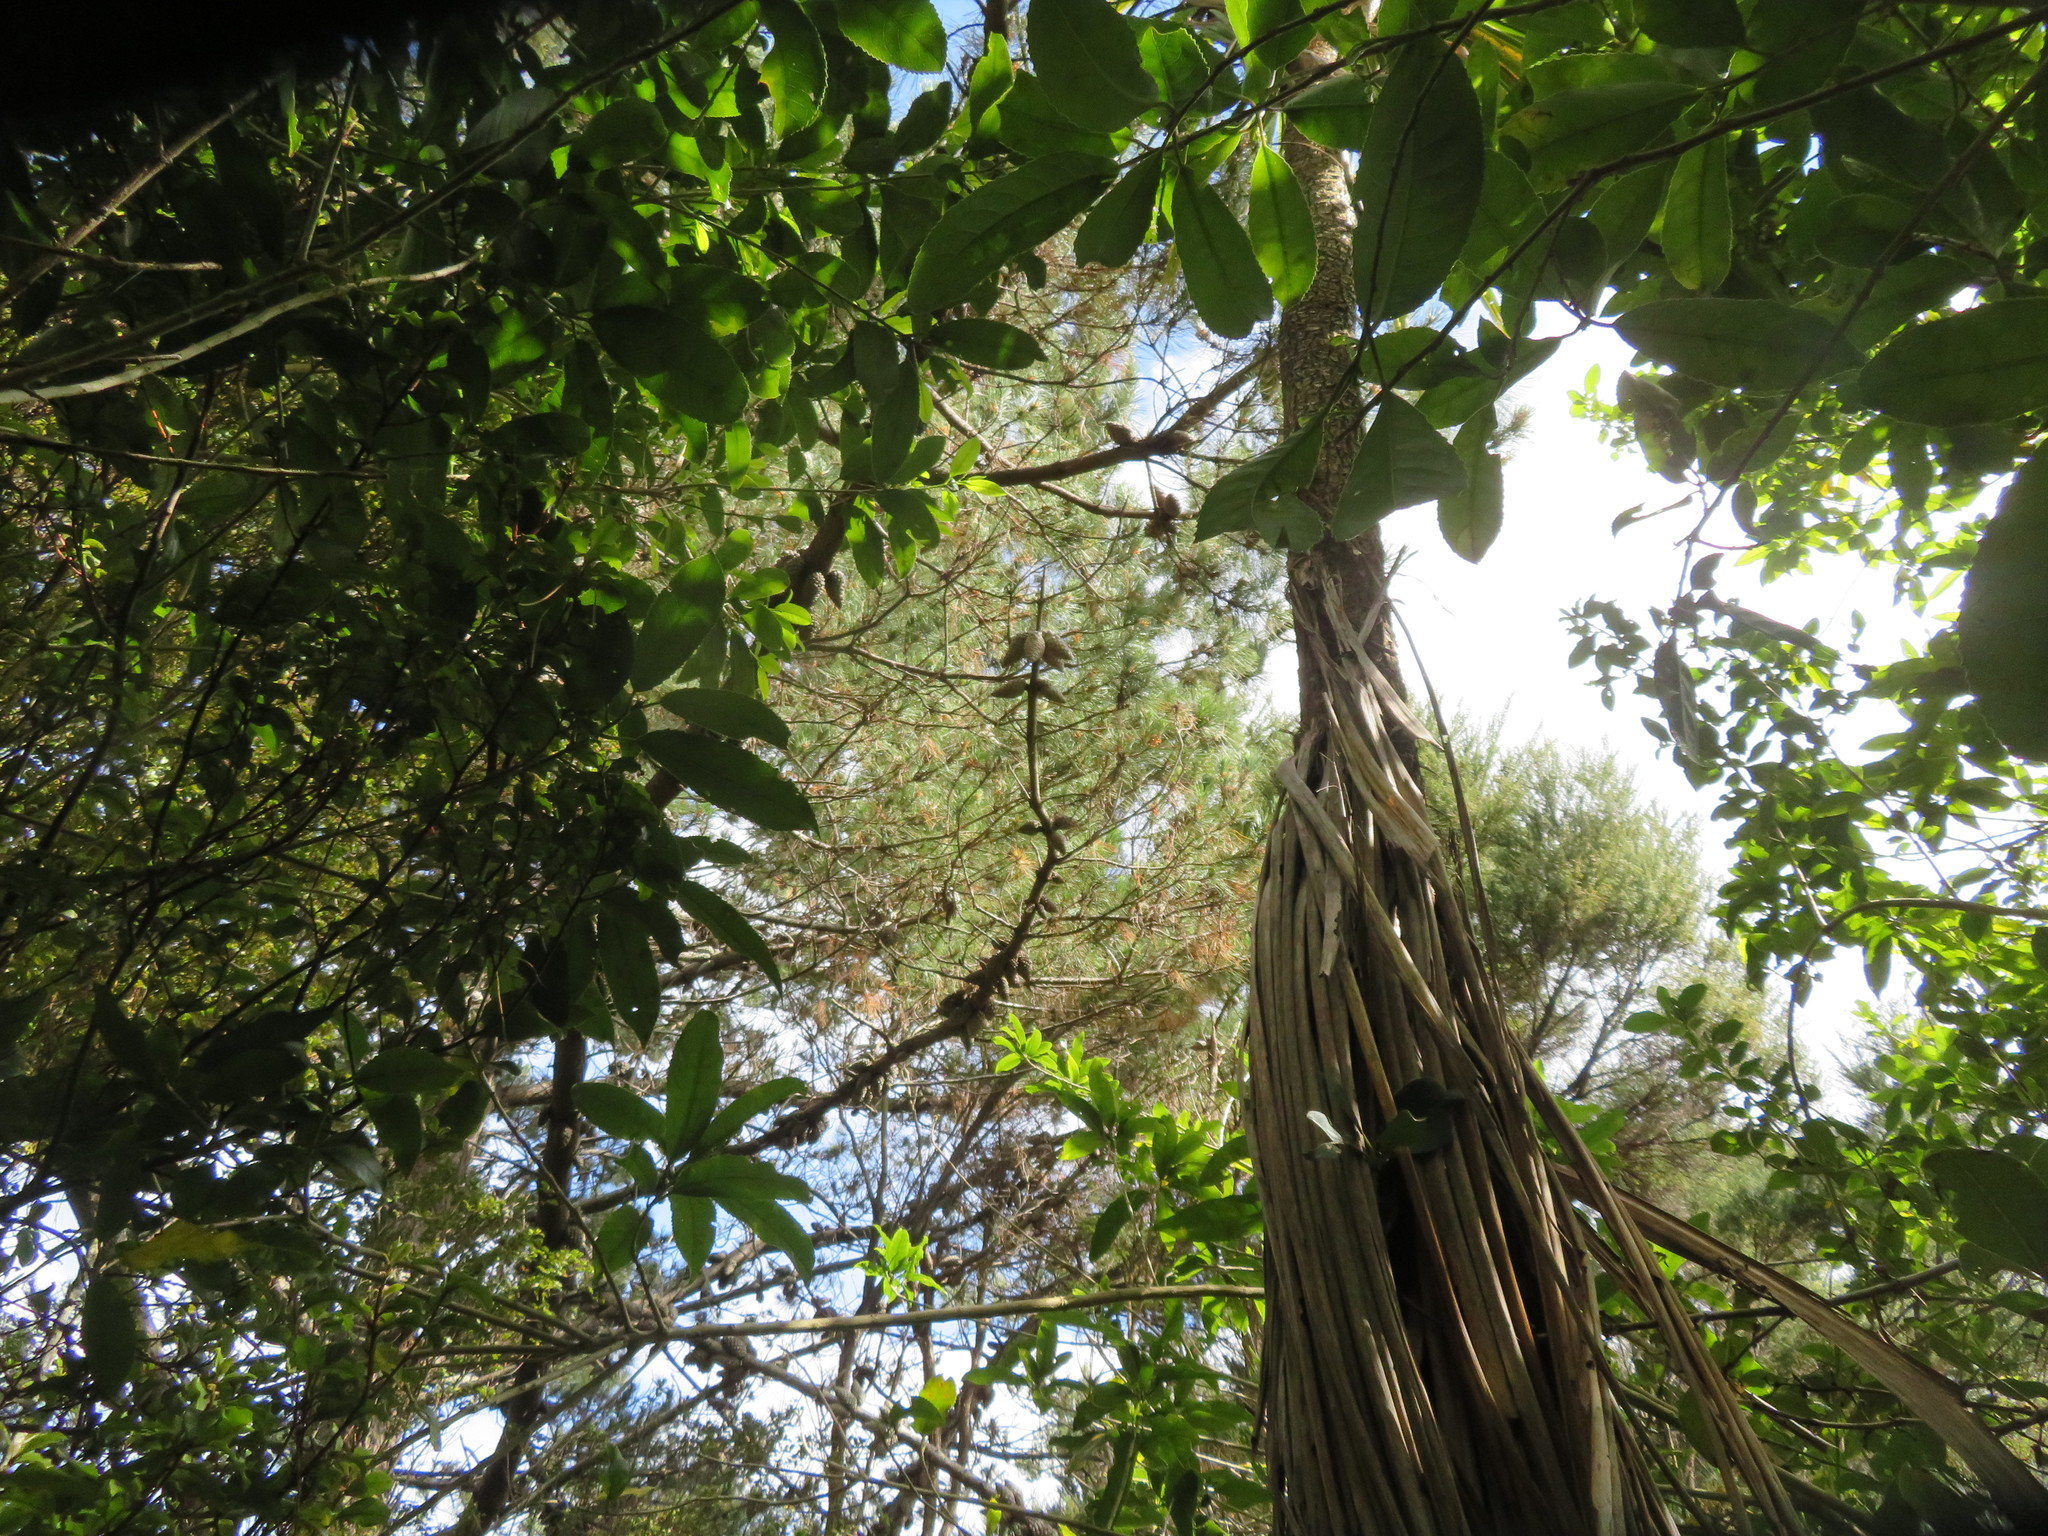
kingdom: Plantae
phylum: Tracheophyta
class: Liliopsida
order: Asparagales
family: Asparagaceae
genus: Cordyline
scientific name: Cordyline australis
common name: Cabbage-palm
